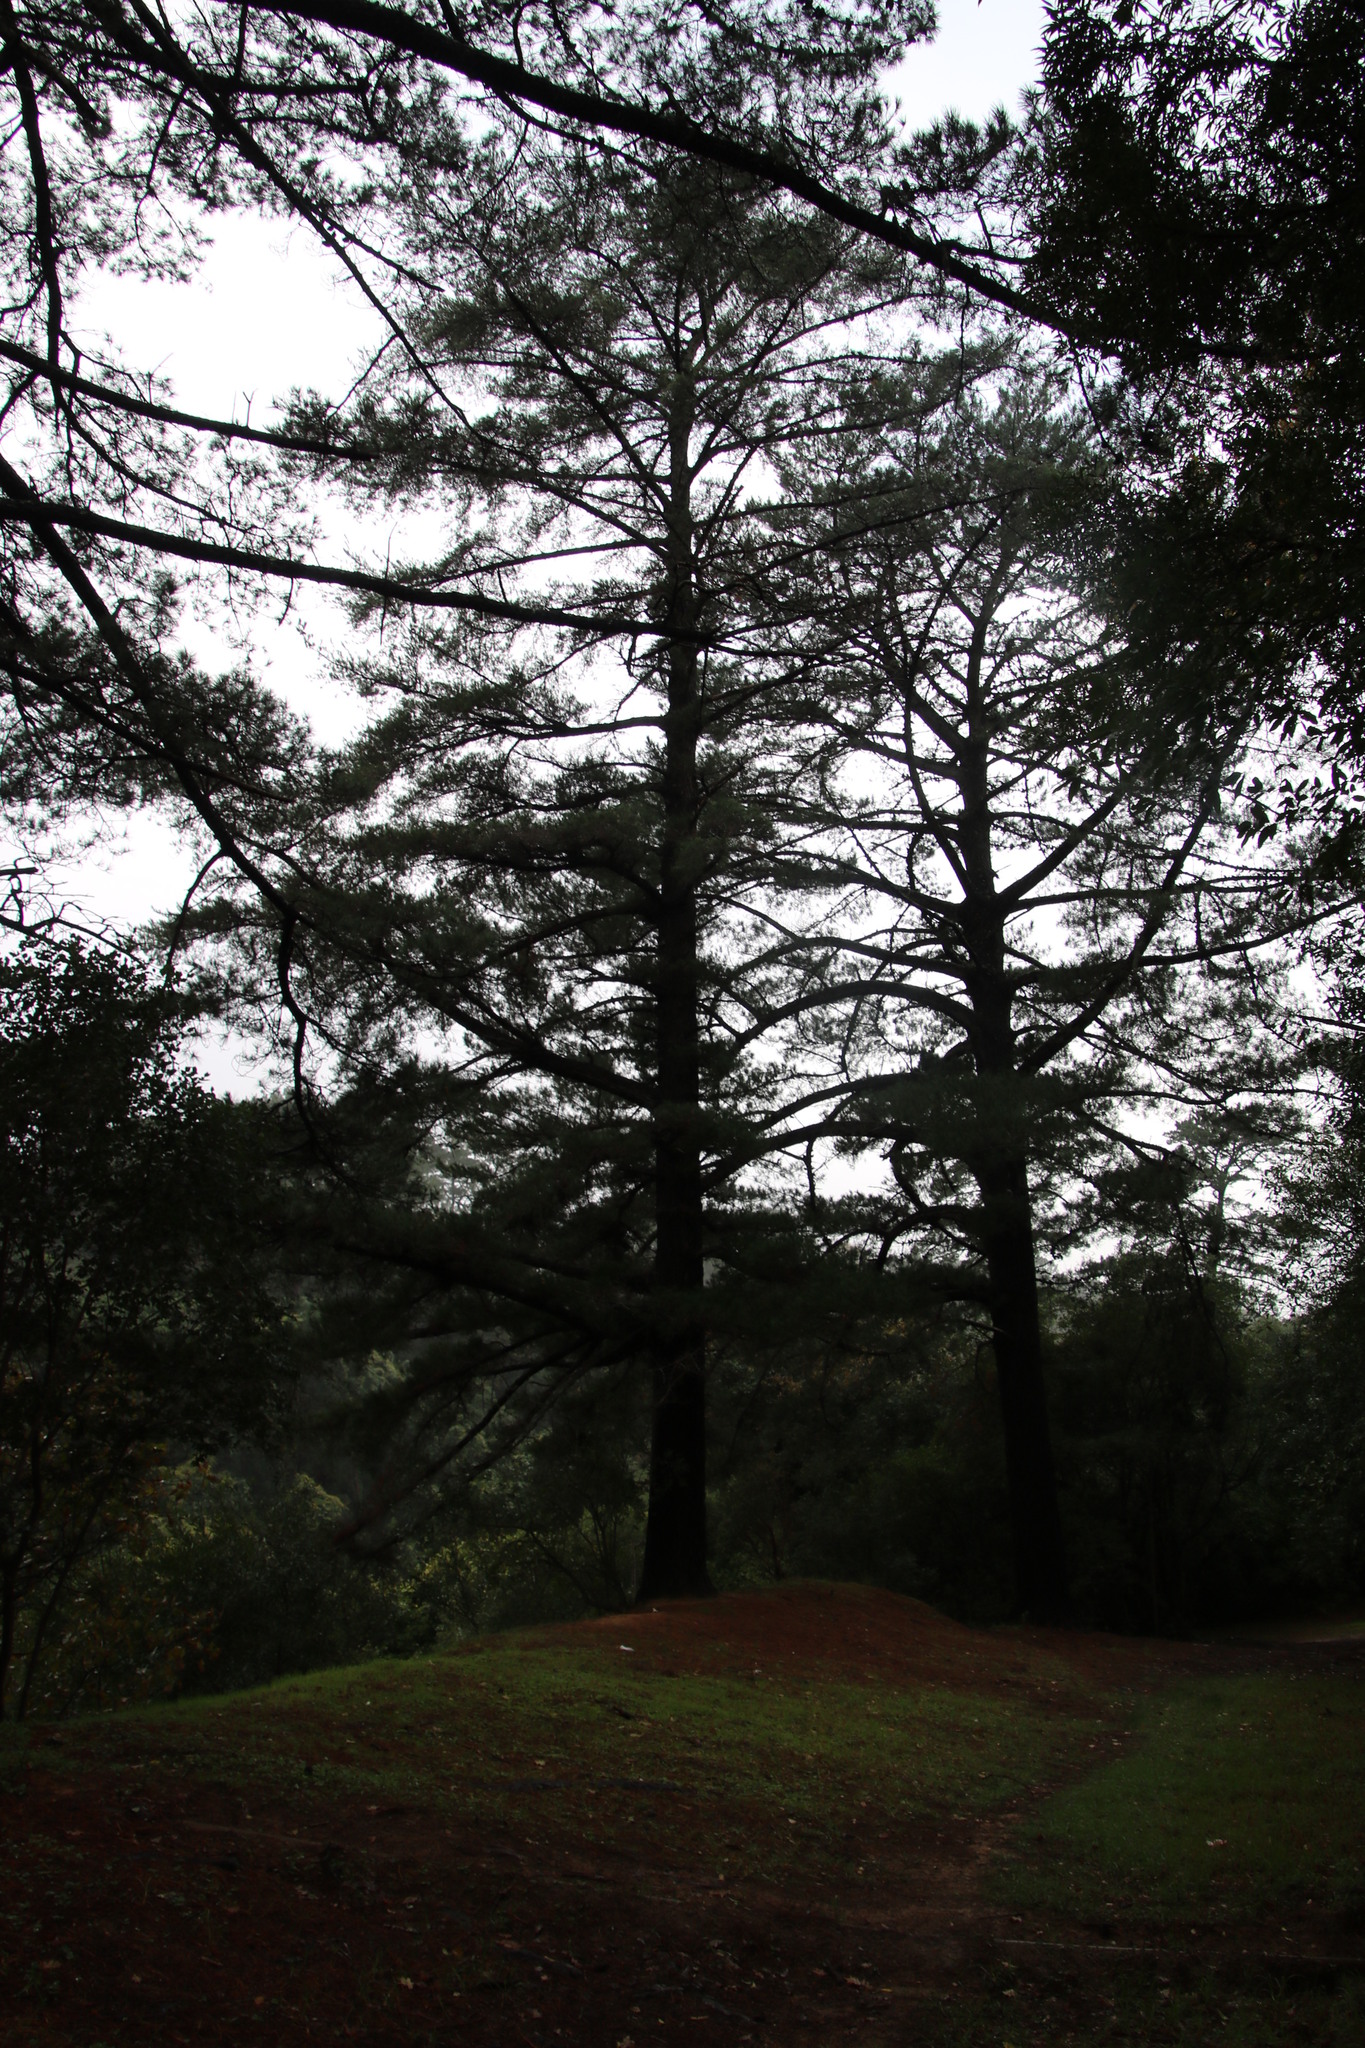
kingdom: Plantae
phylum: Tracheophyta
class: Pinopsida
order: Pinales
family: Pinaceae
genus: Pinus
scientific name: Pinus radiata
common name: Monterey pine
